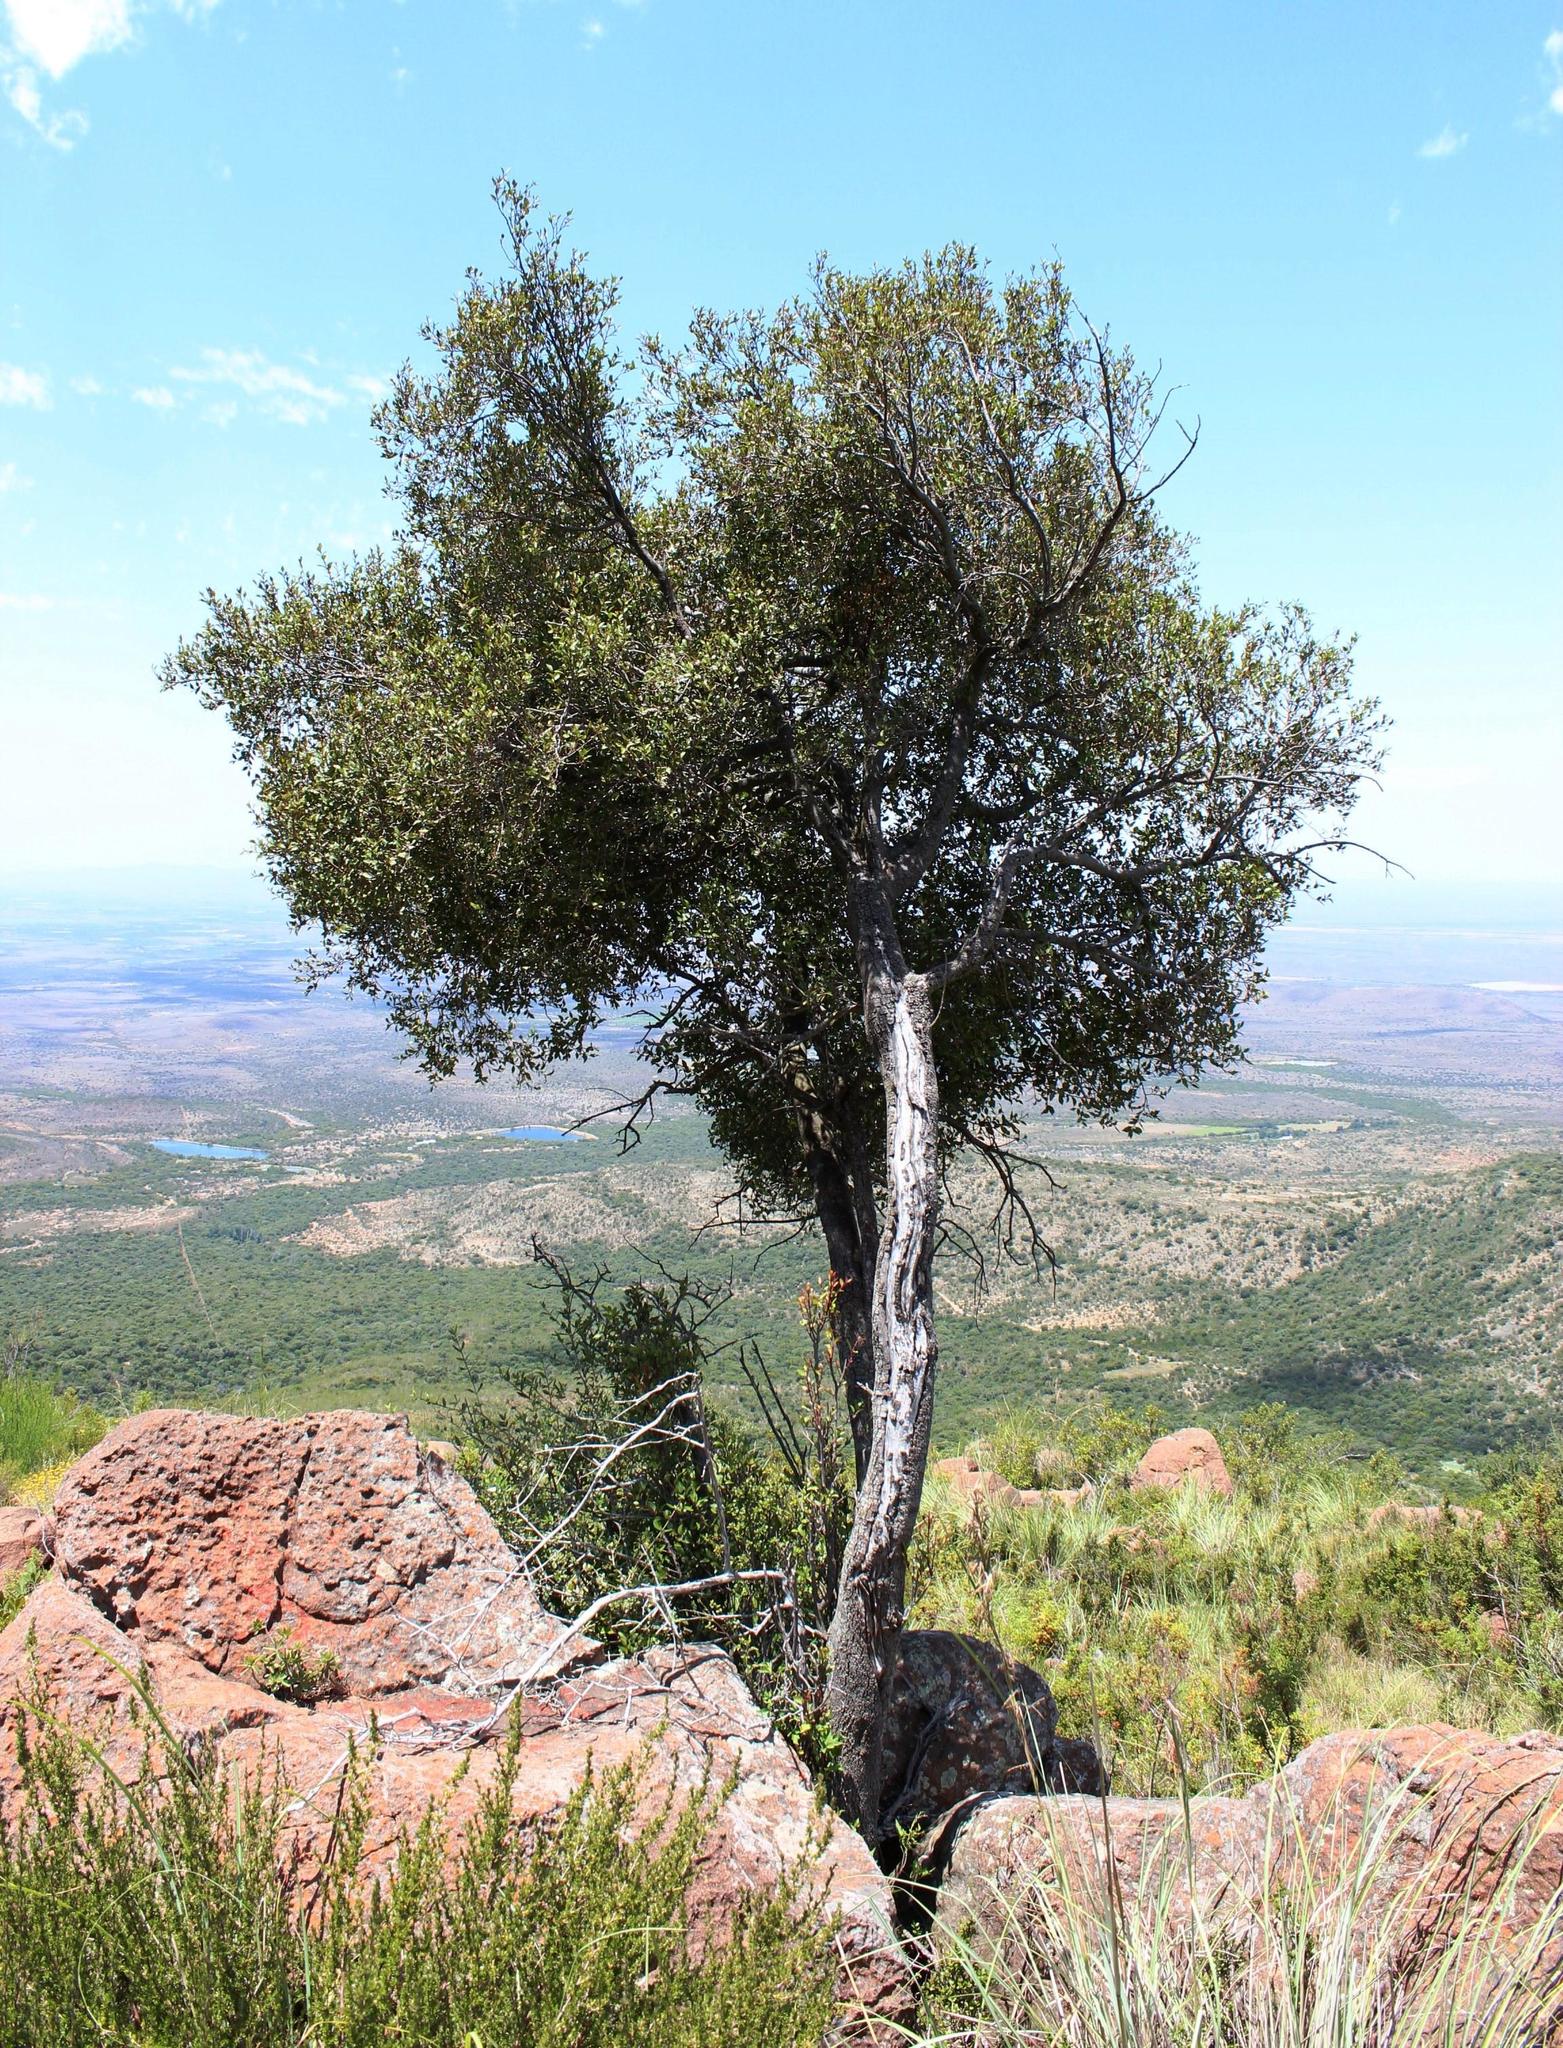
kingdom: Plantae
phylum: Tracheophyta
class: Magnoliopsida
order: Celastrales
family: Celastraceae
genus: Gymnosporia
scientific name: Gymnosporia acuminata
